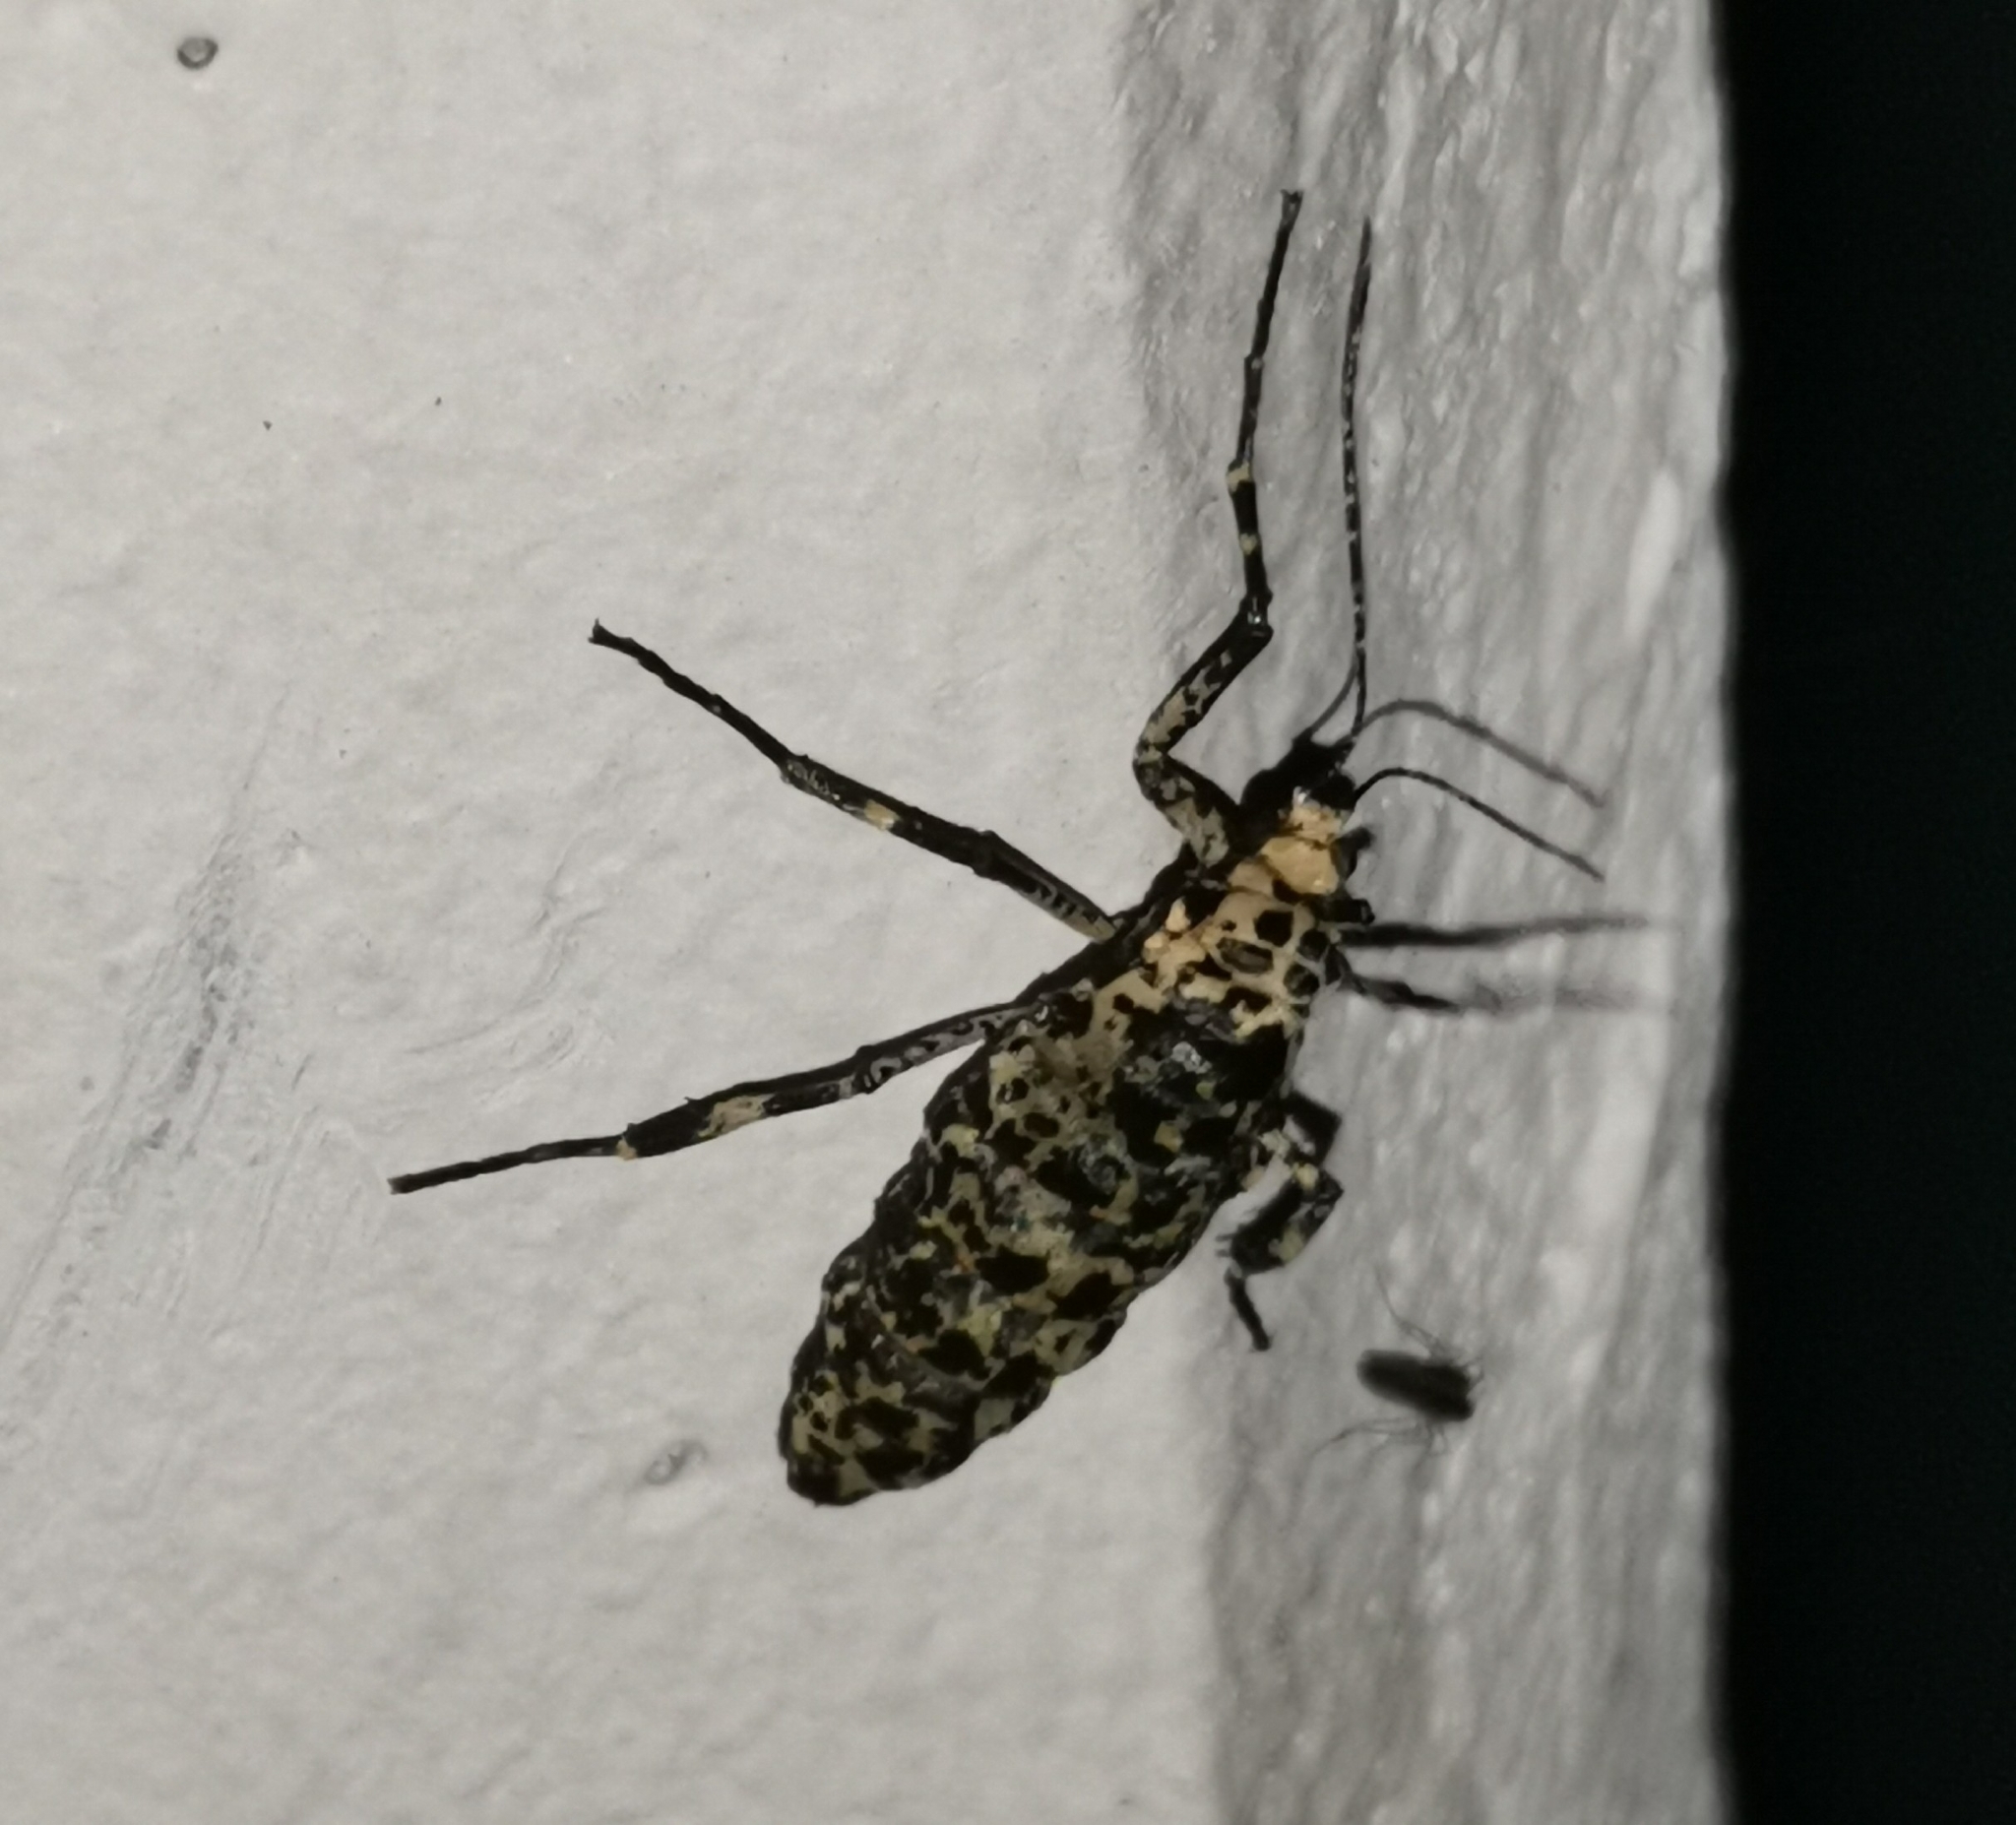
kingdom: Animalia
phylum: Arthropoda
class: Insecta
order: Lepidoptera
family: Geometridae
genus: Erannis
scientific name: Erannis defoliaria
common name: Mottled umber
